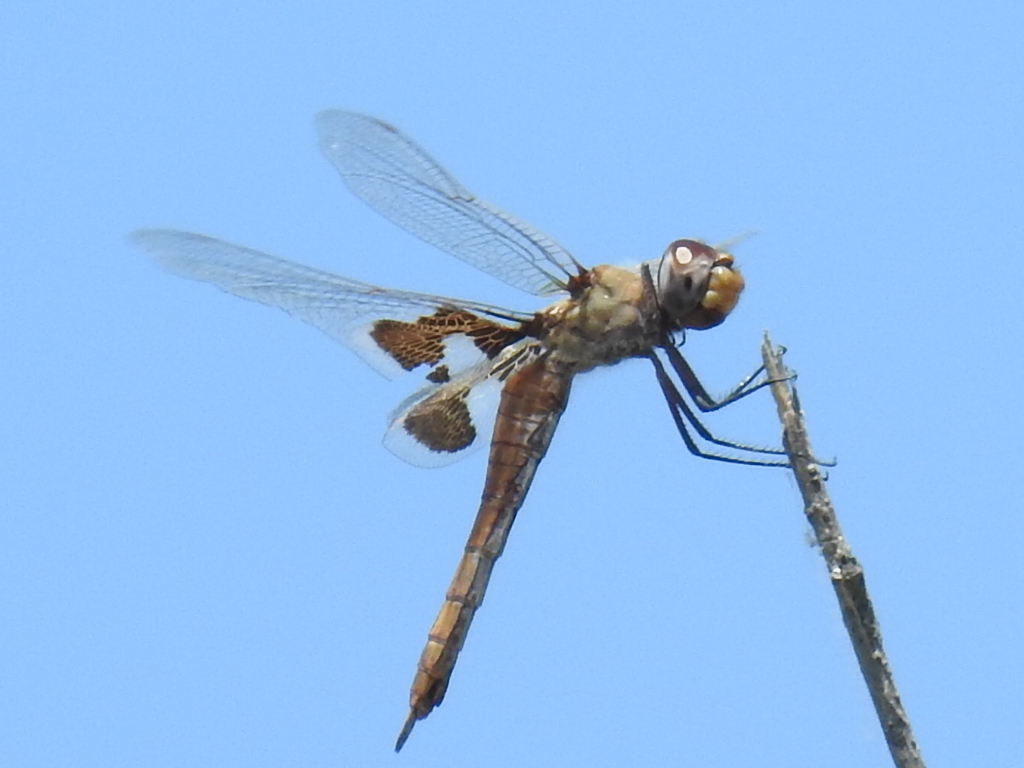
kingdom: Animalia
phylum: Arthropoda
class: Insecta
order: Odonata
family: Libellulidae
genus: Tramea
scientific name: Tramea onusta
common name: Red saddlebags
